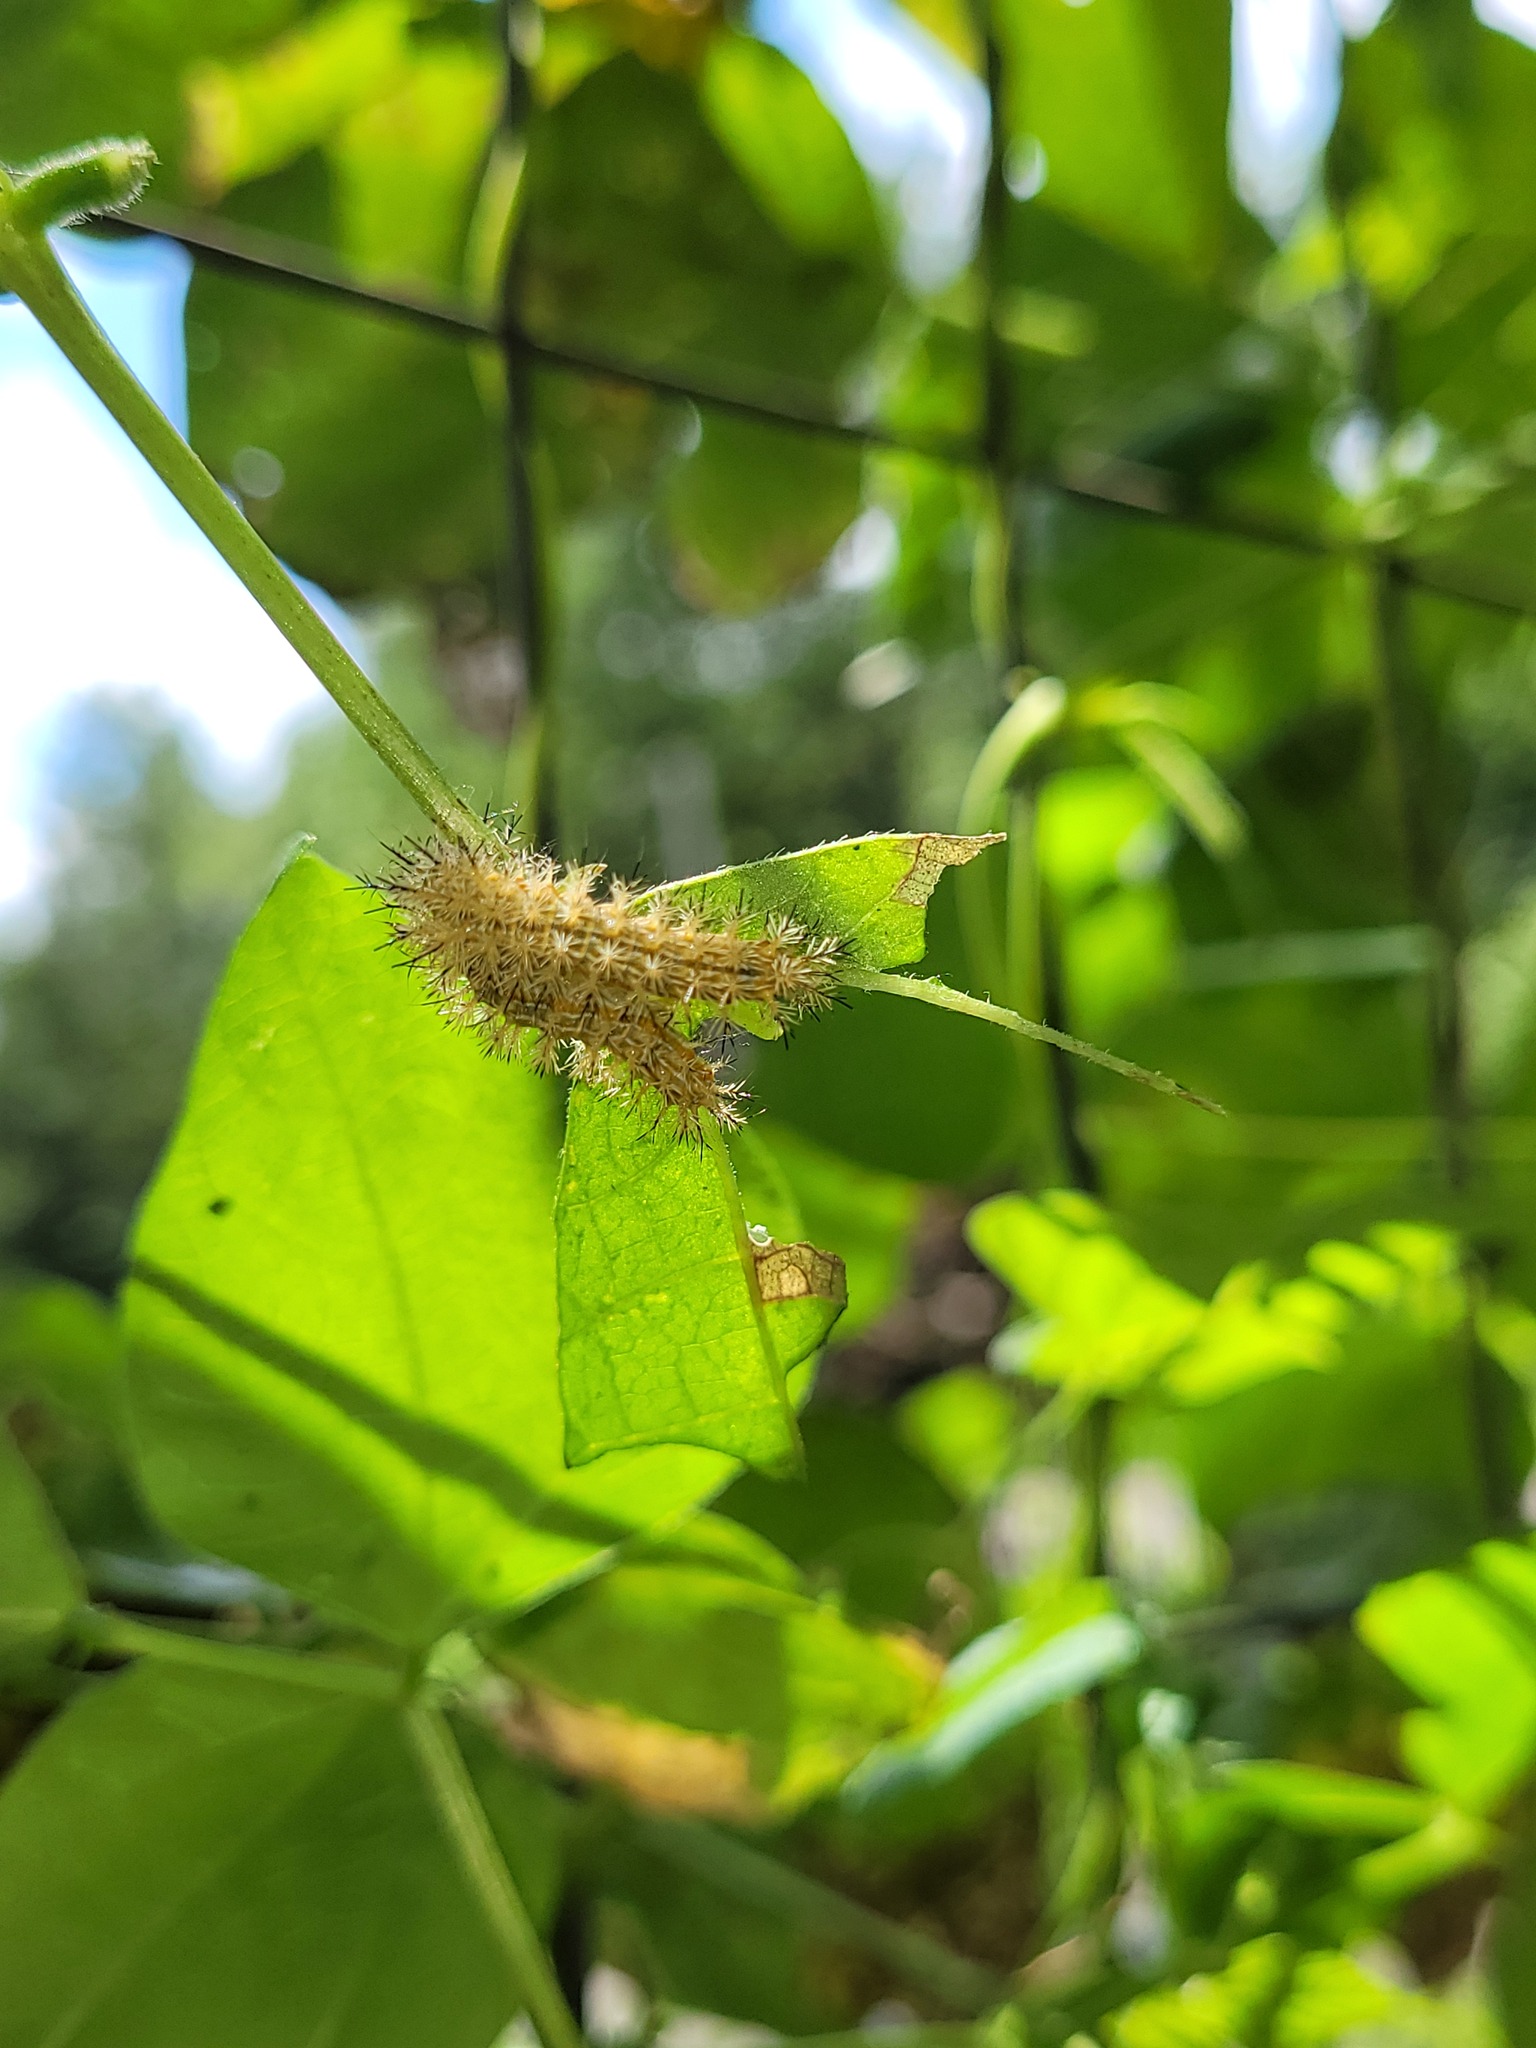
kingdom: Animalia
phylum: Arthropoda
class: Insecta
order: Lepidoptera
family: Saturniidae
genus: Automeris
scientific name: Automeris io
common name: Io moth
